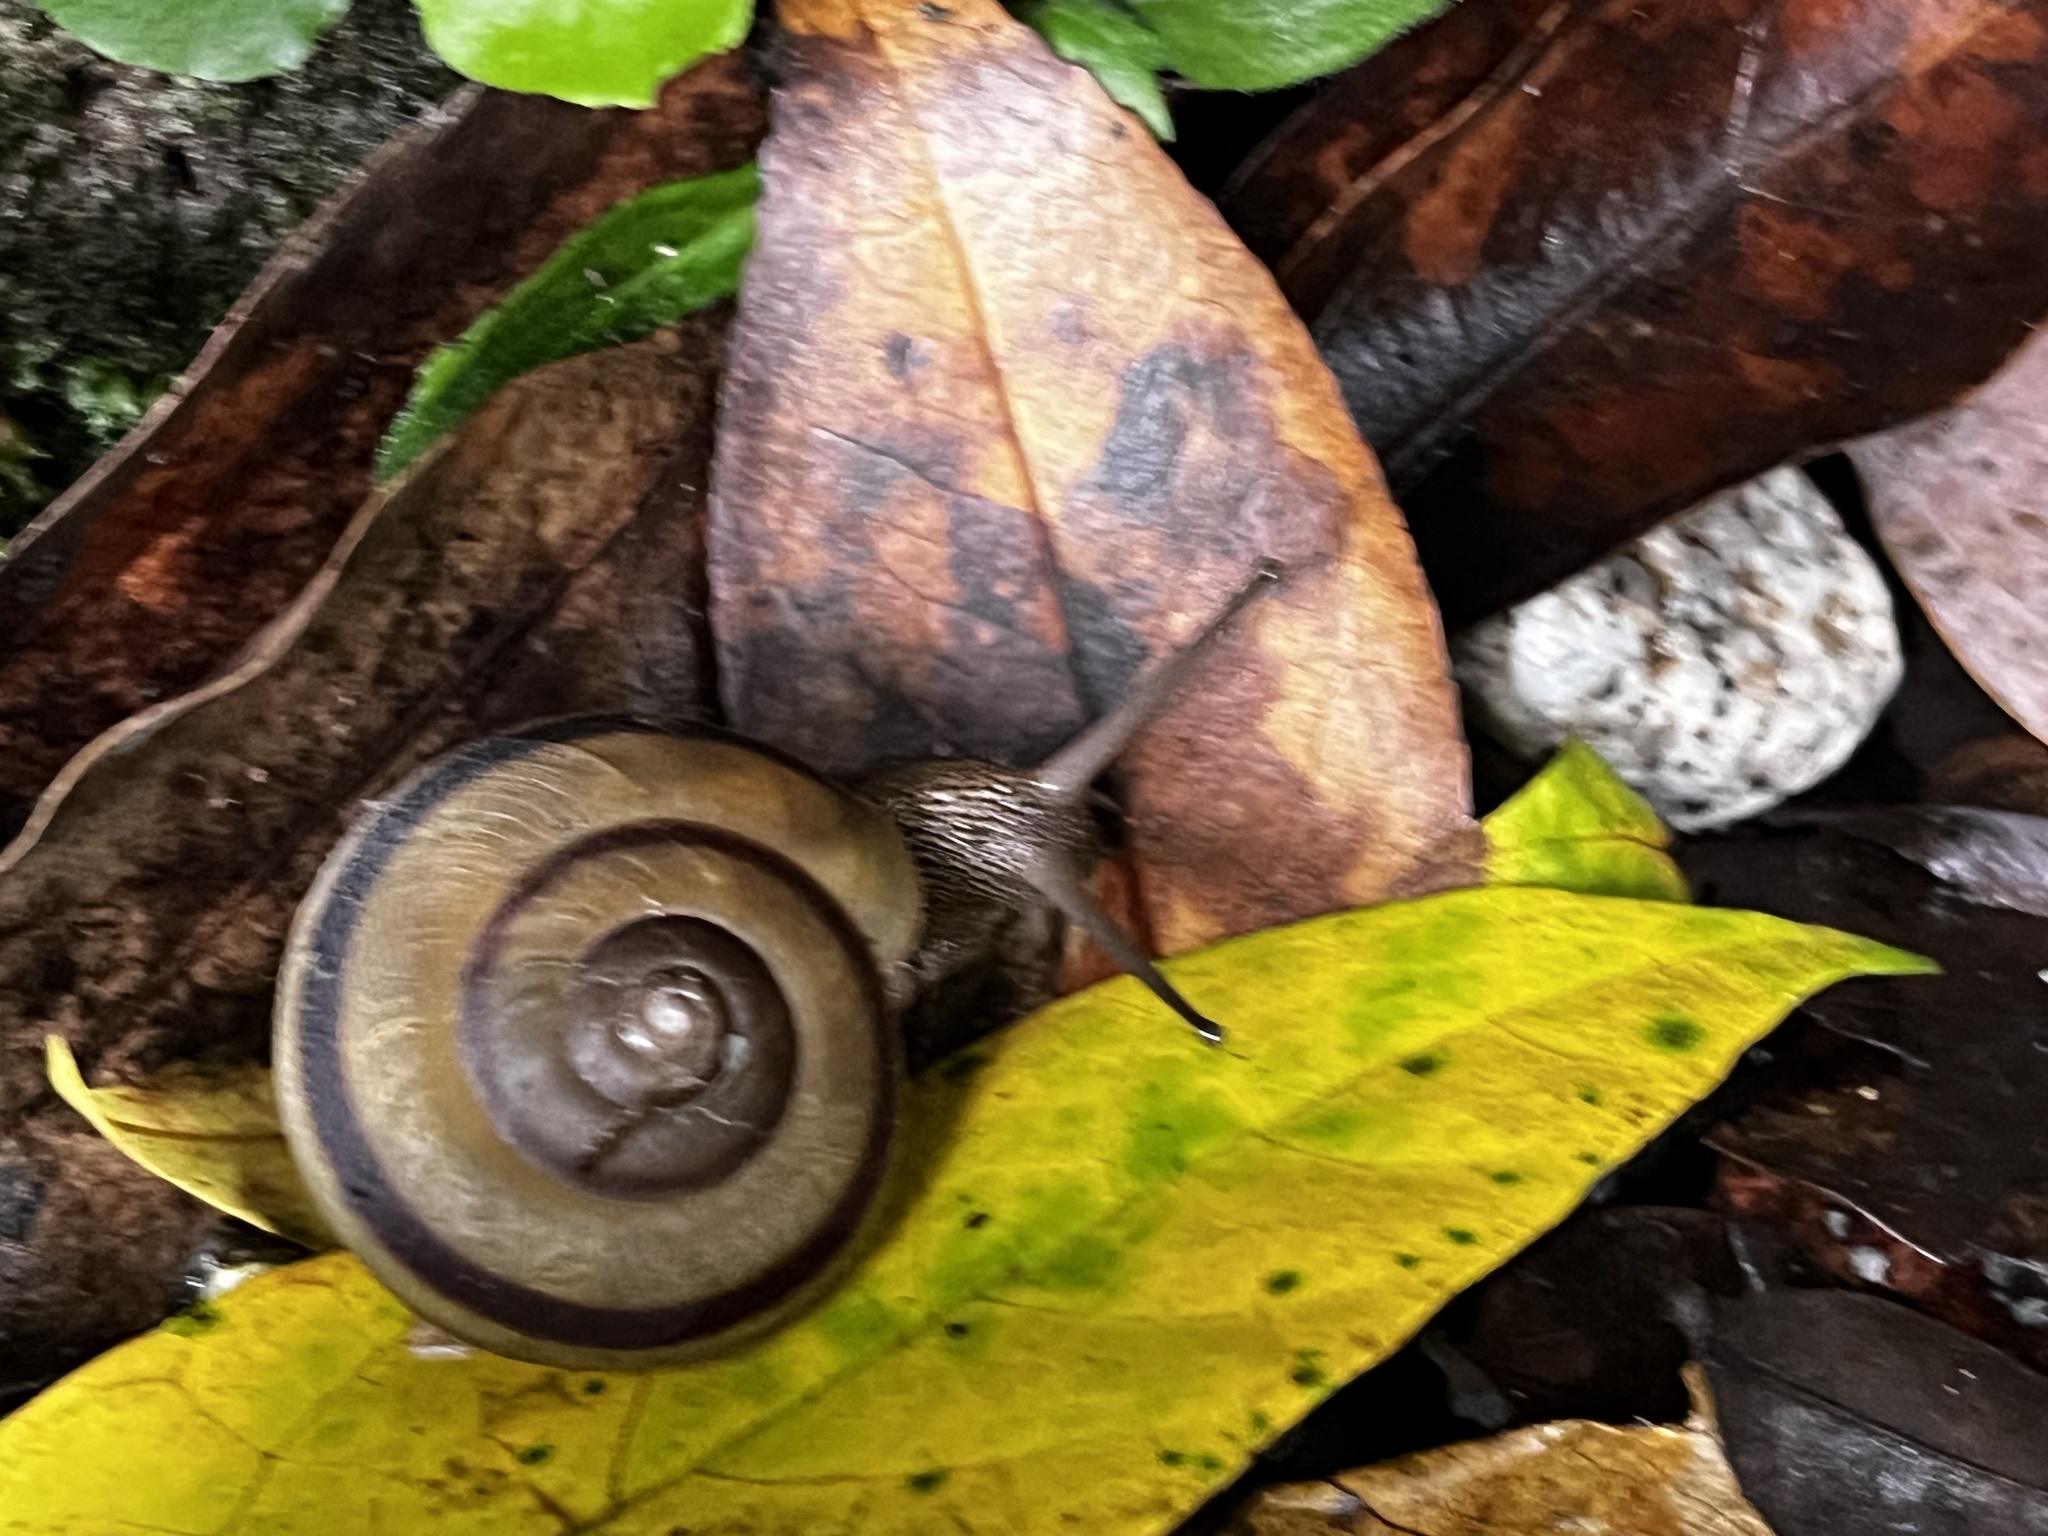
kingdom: Animalia
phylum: Mollusca
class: Gastropoda
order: Stylommatophora
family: Camaenidae
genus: Nesiohelix
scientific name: Nesiohelix samarangae
